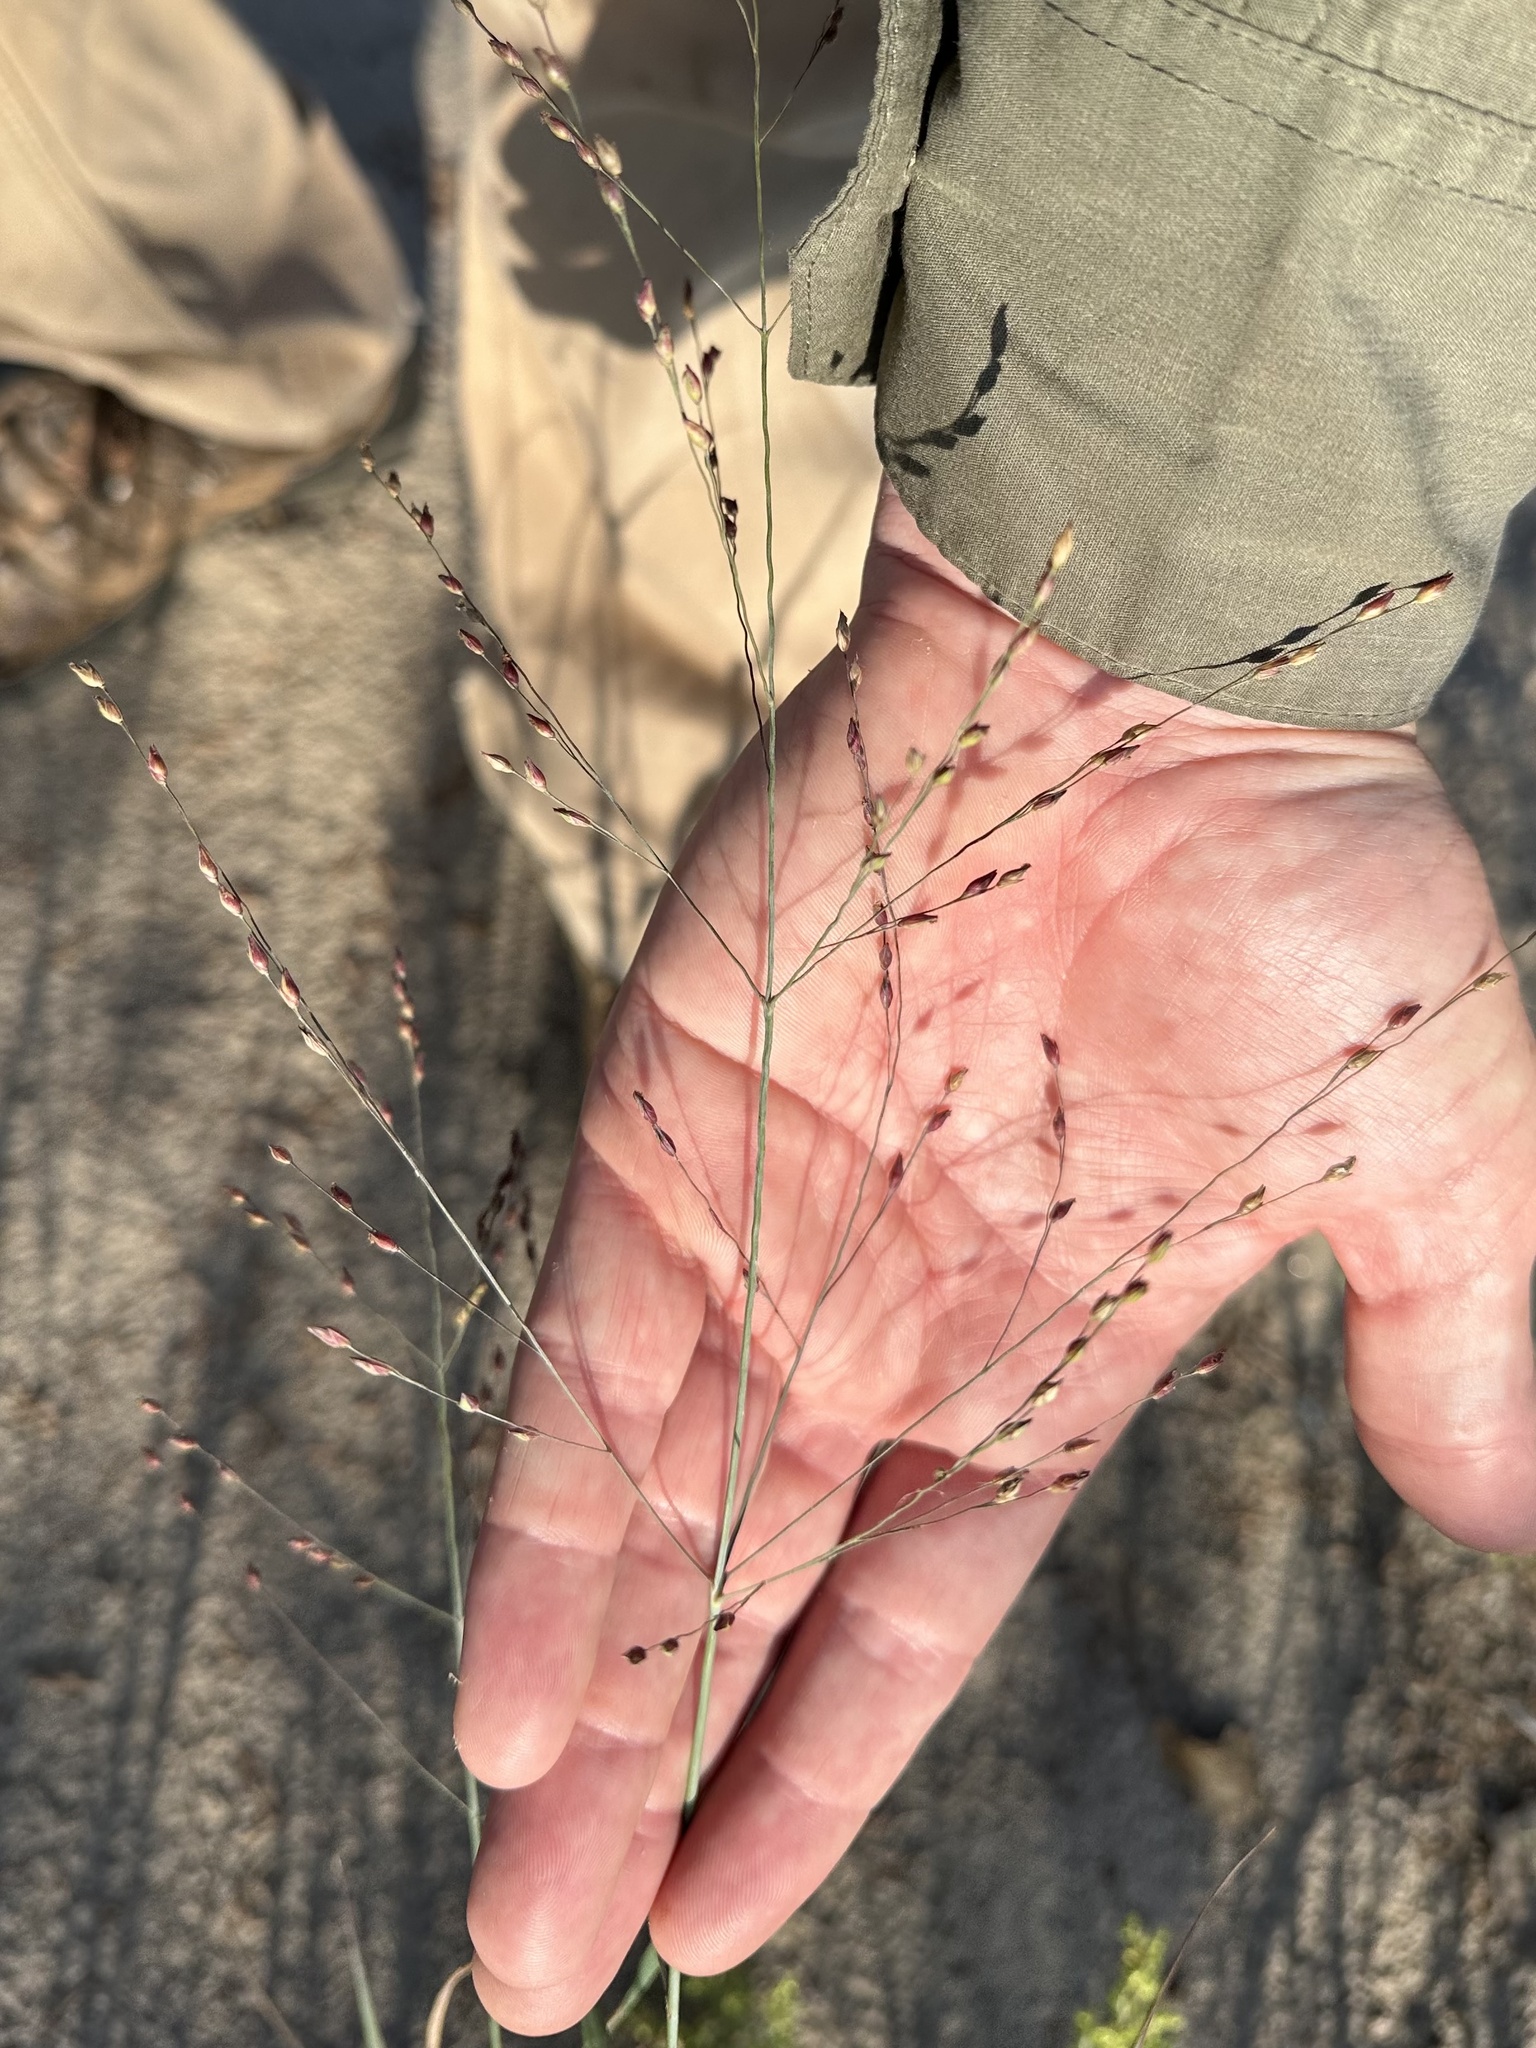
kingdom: Plantae
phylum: Tracheophyta
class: Liliopsida
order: Poales
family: Poaceae
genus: Panicum
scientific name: Panicum virgatum
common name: Switchgrass
